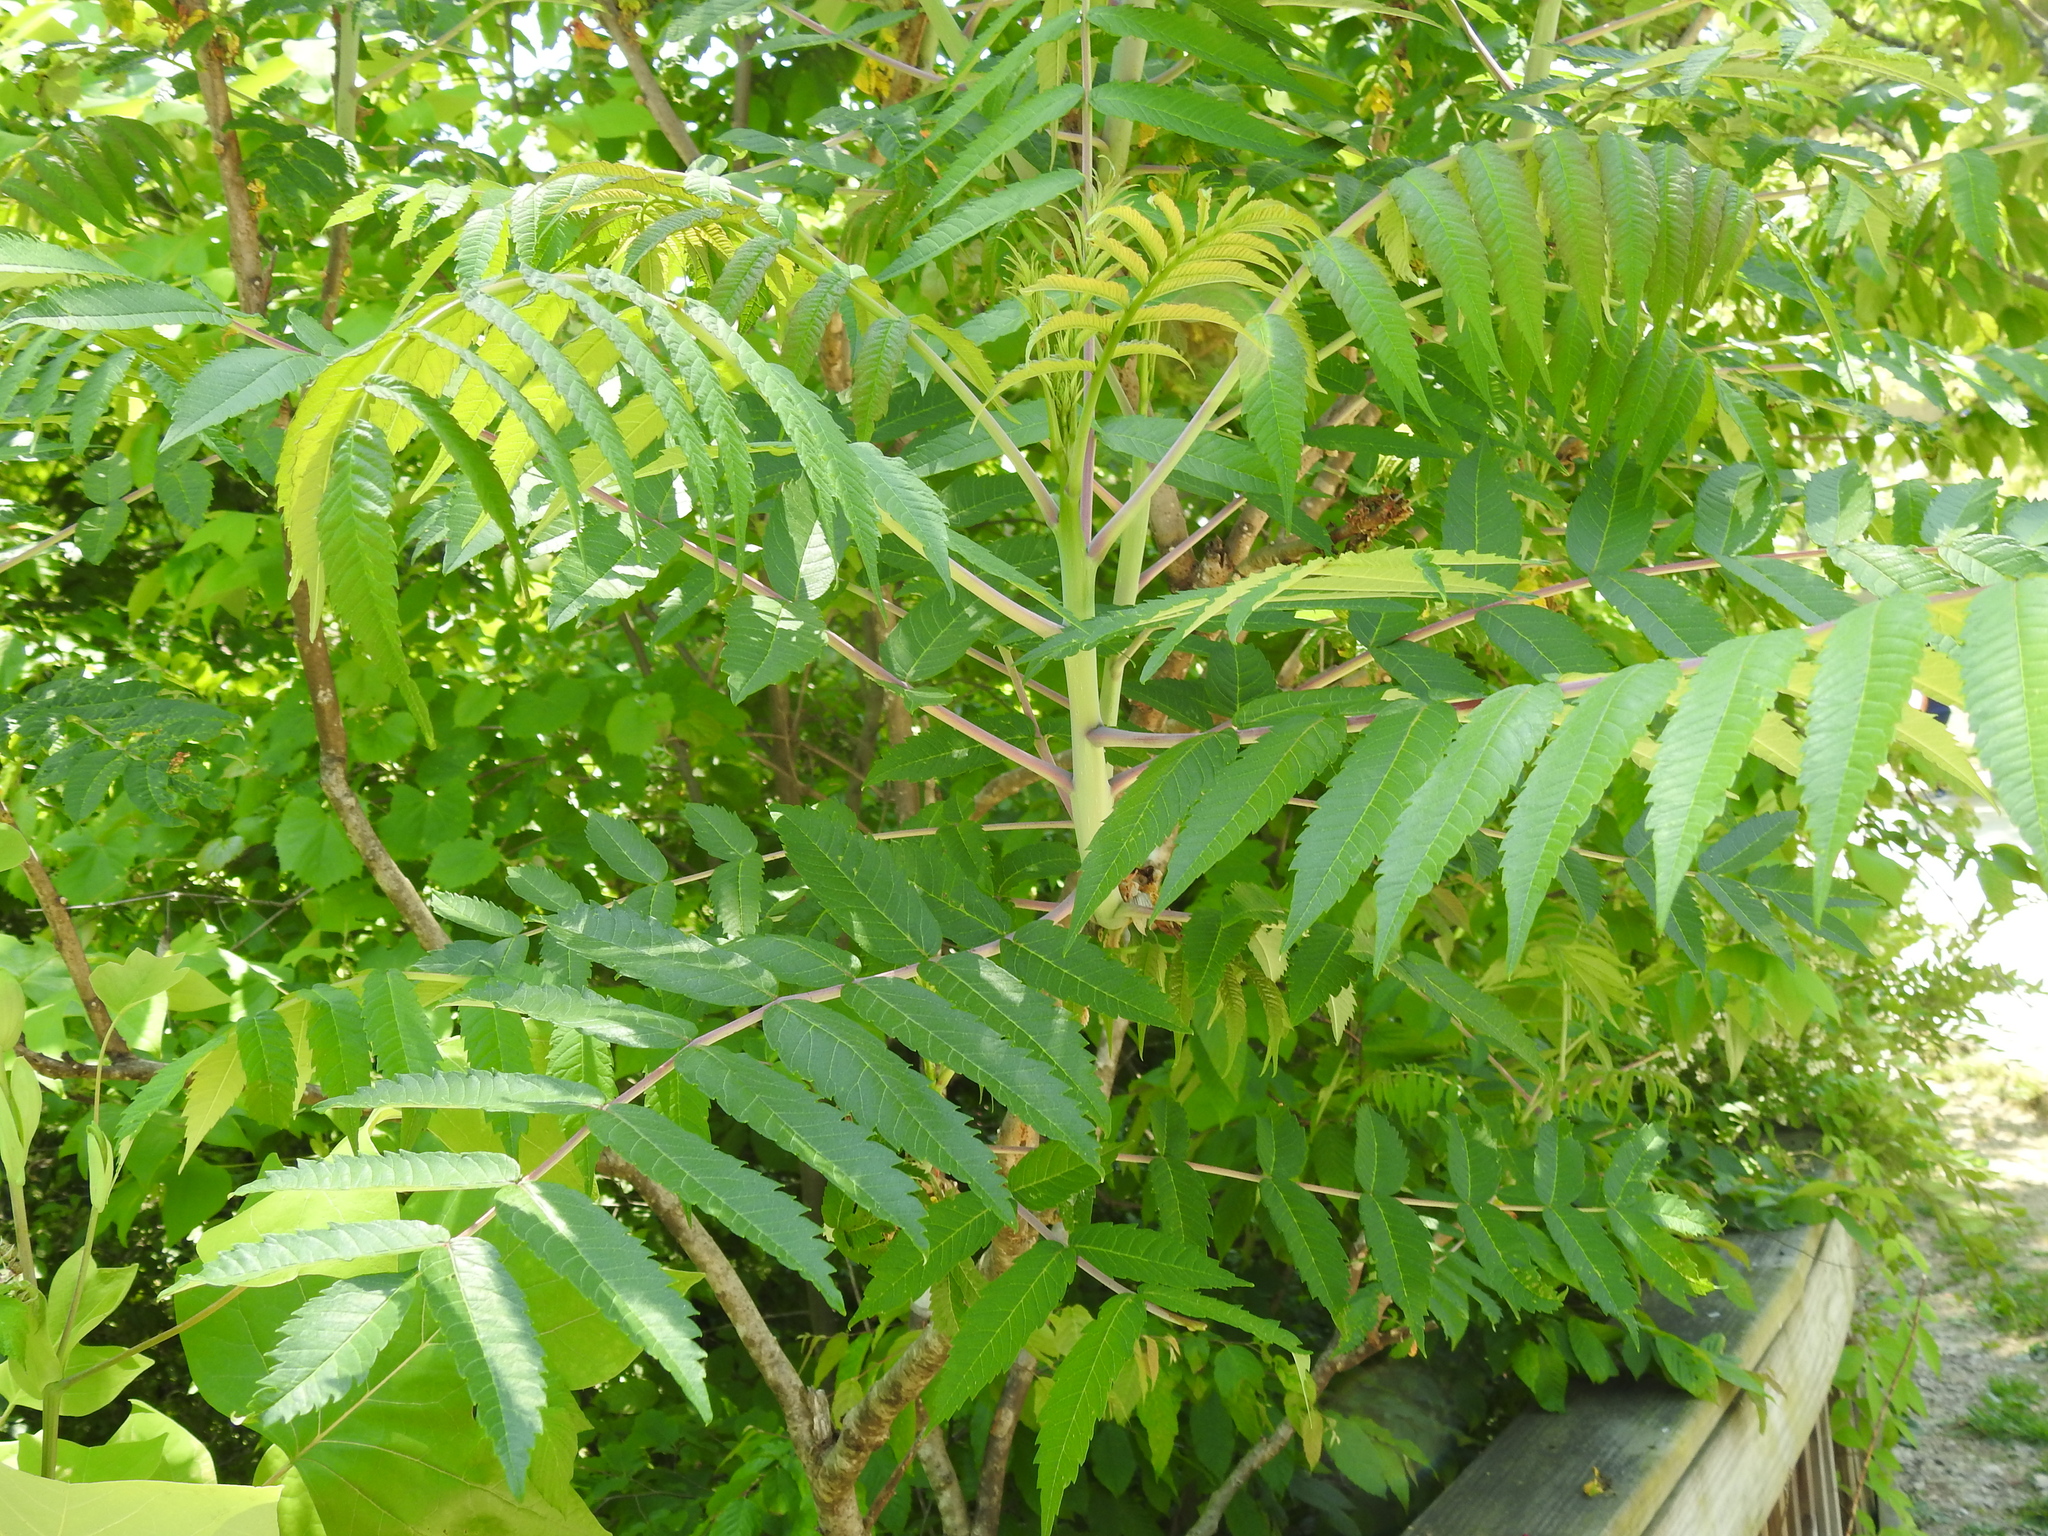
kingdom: Plantae
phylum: Tracheophyta
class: Magnoliopsida
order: Sapindales
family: Anacardiaceae
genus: Rhus
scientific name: Rhus glabra
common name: Scarlet sumac
